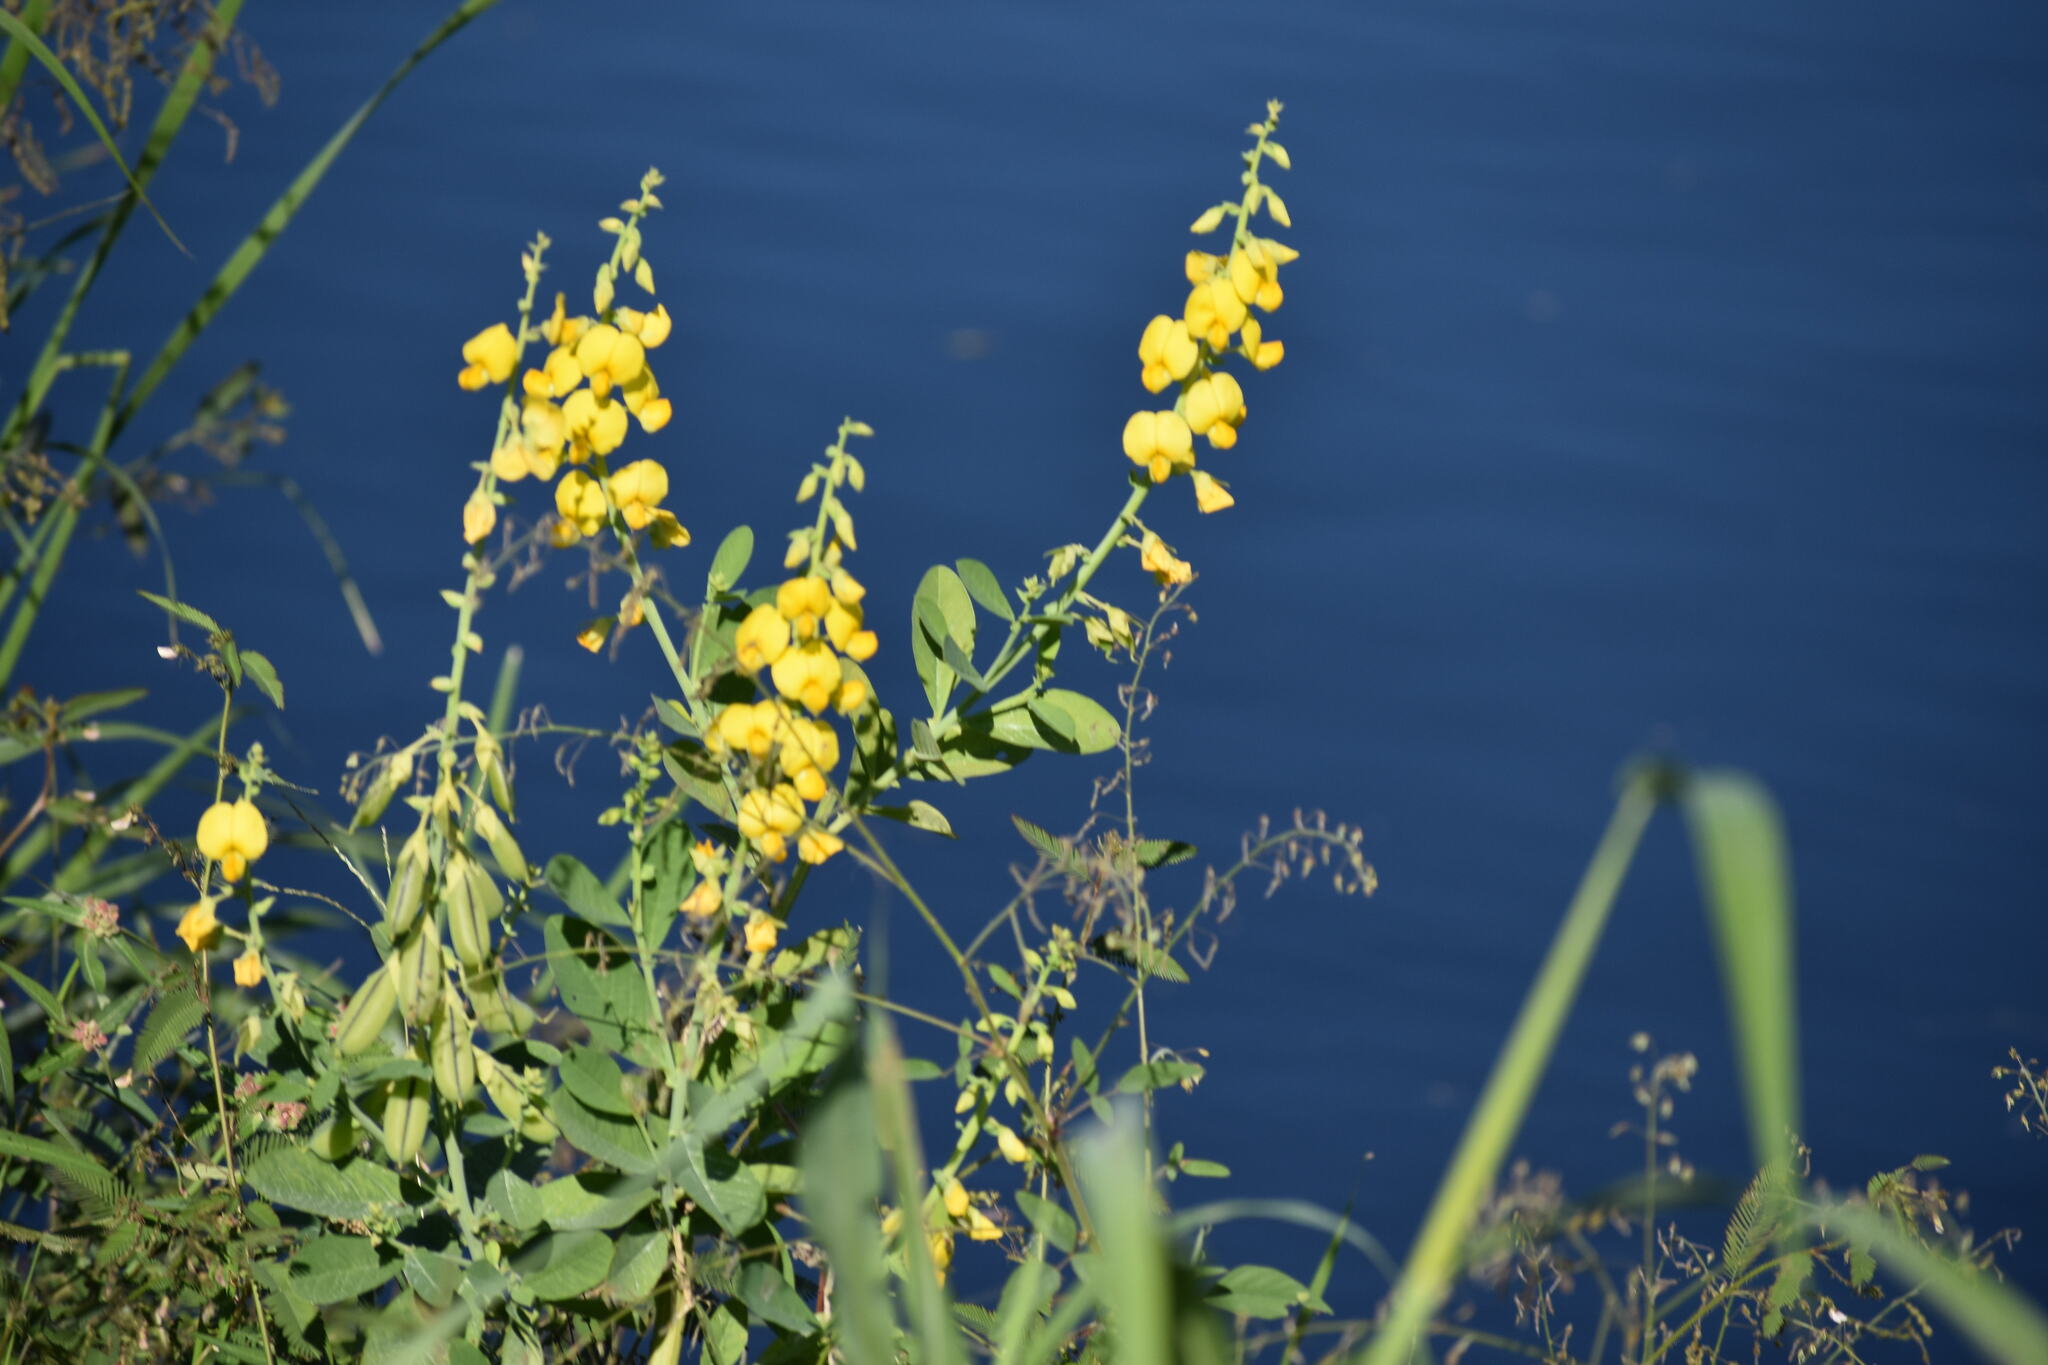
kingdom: Plantae
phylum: Tracheophyta
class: Magnoliopsida
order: Fabales
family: Fabaceae
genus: Crotalaria
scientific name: Crotalaria spectabilis
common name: Showy rattlebox
